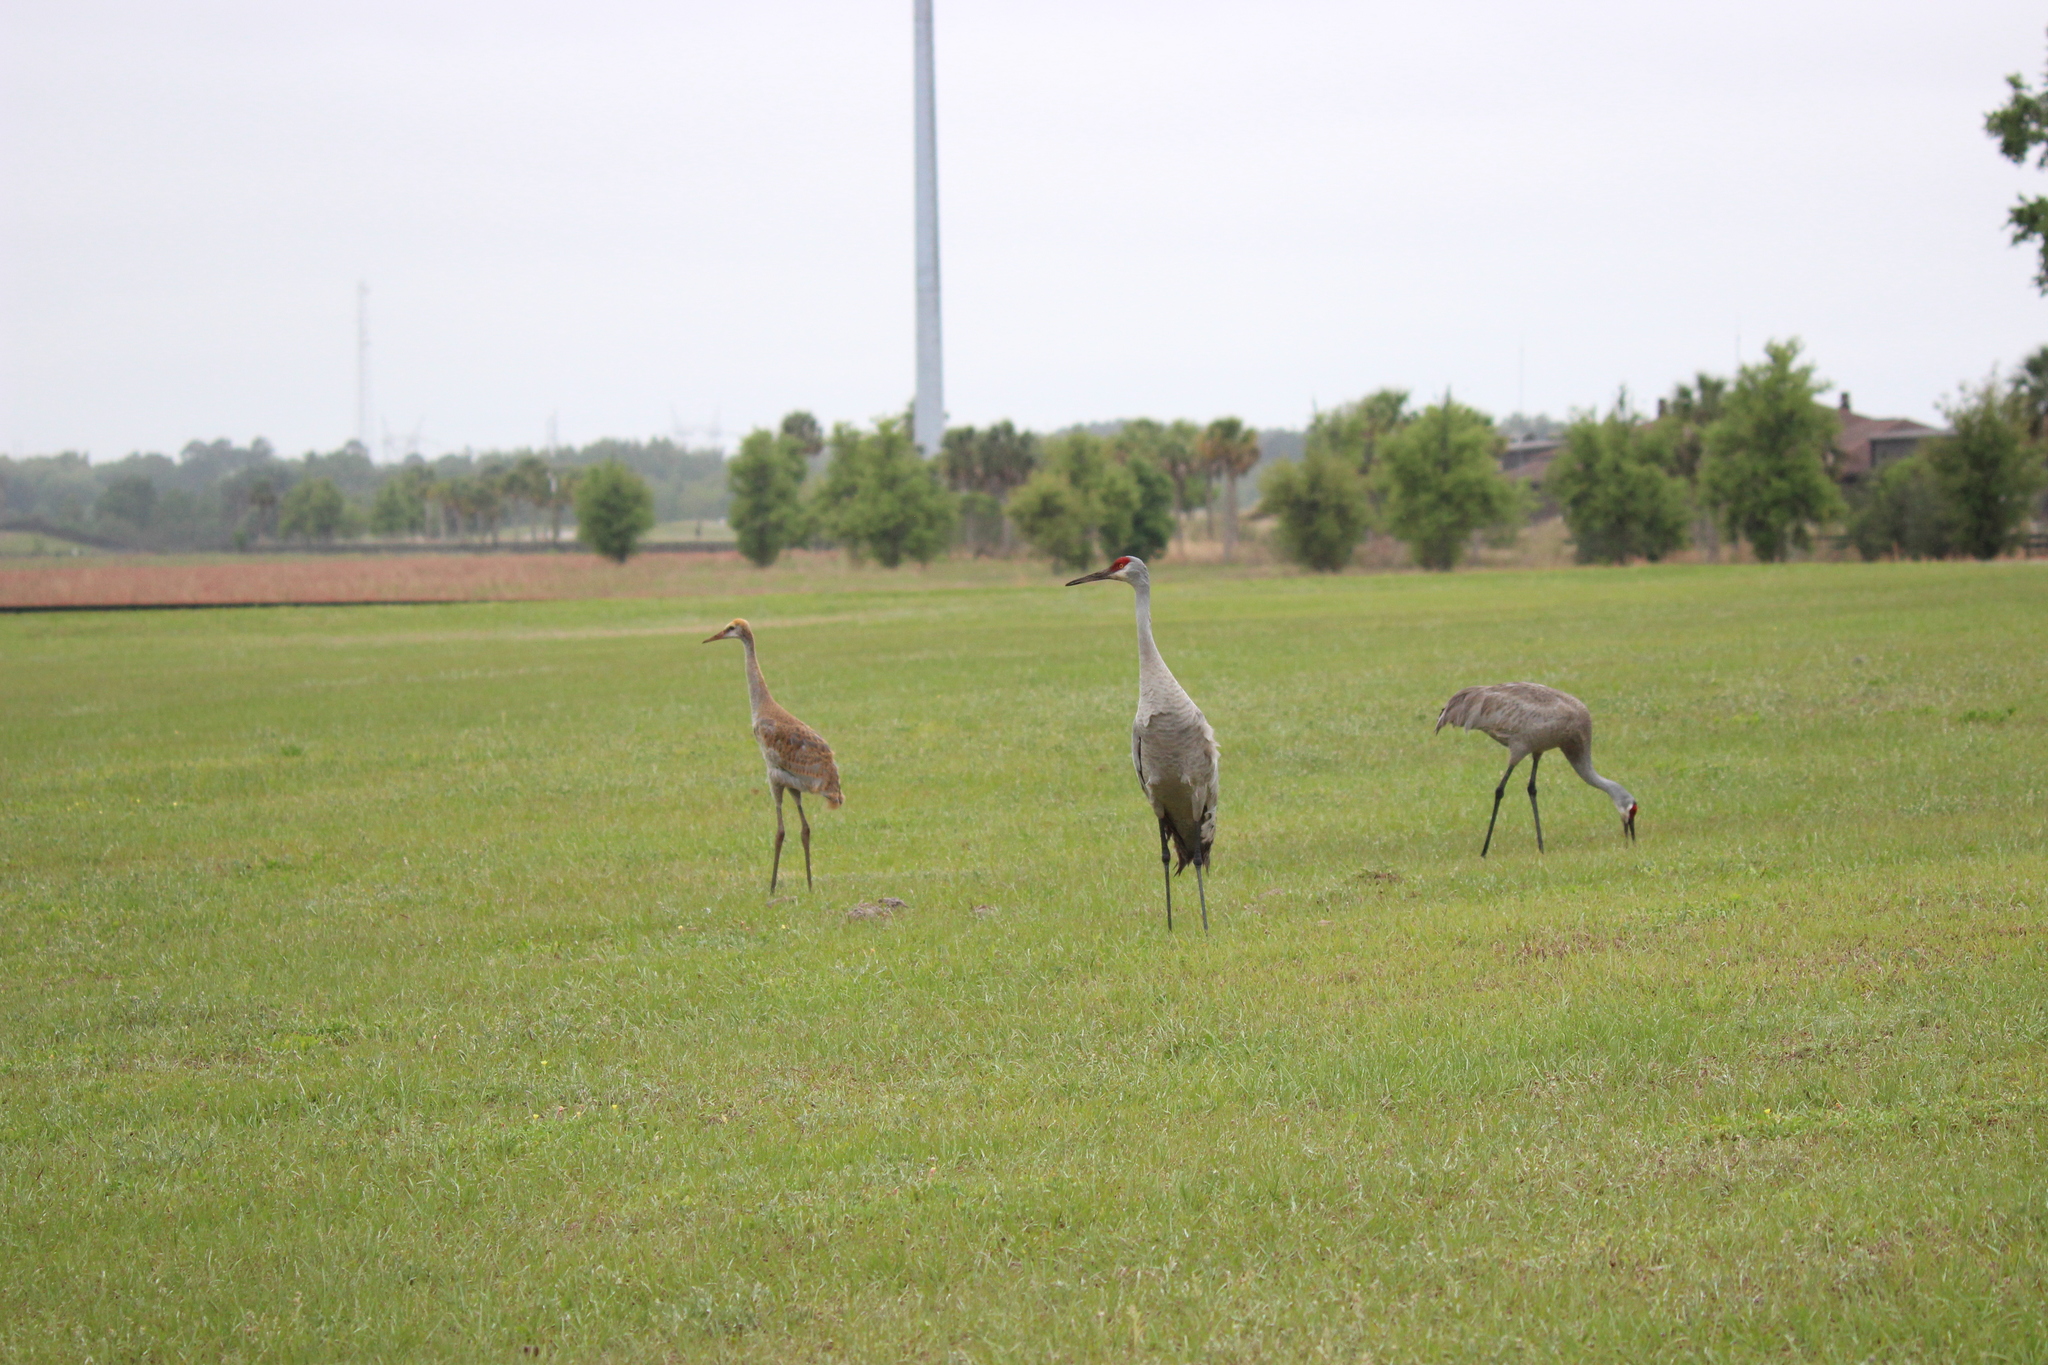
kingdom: Animalia
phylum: Chordata
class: Aves
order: Gruiformes
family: Gruidae
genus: Grus
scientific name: Grus canadensis
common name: Sandhill crane
